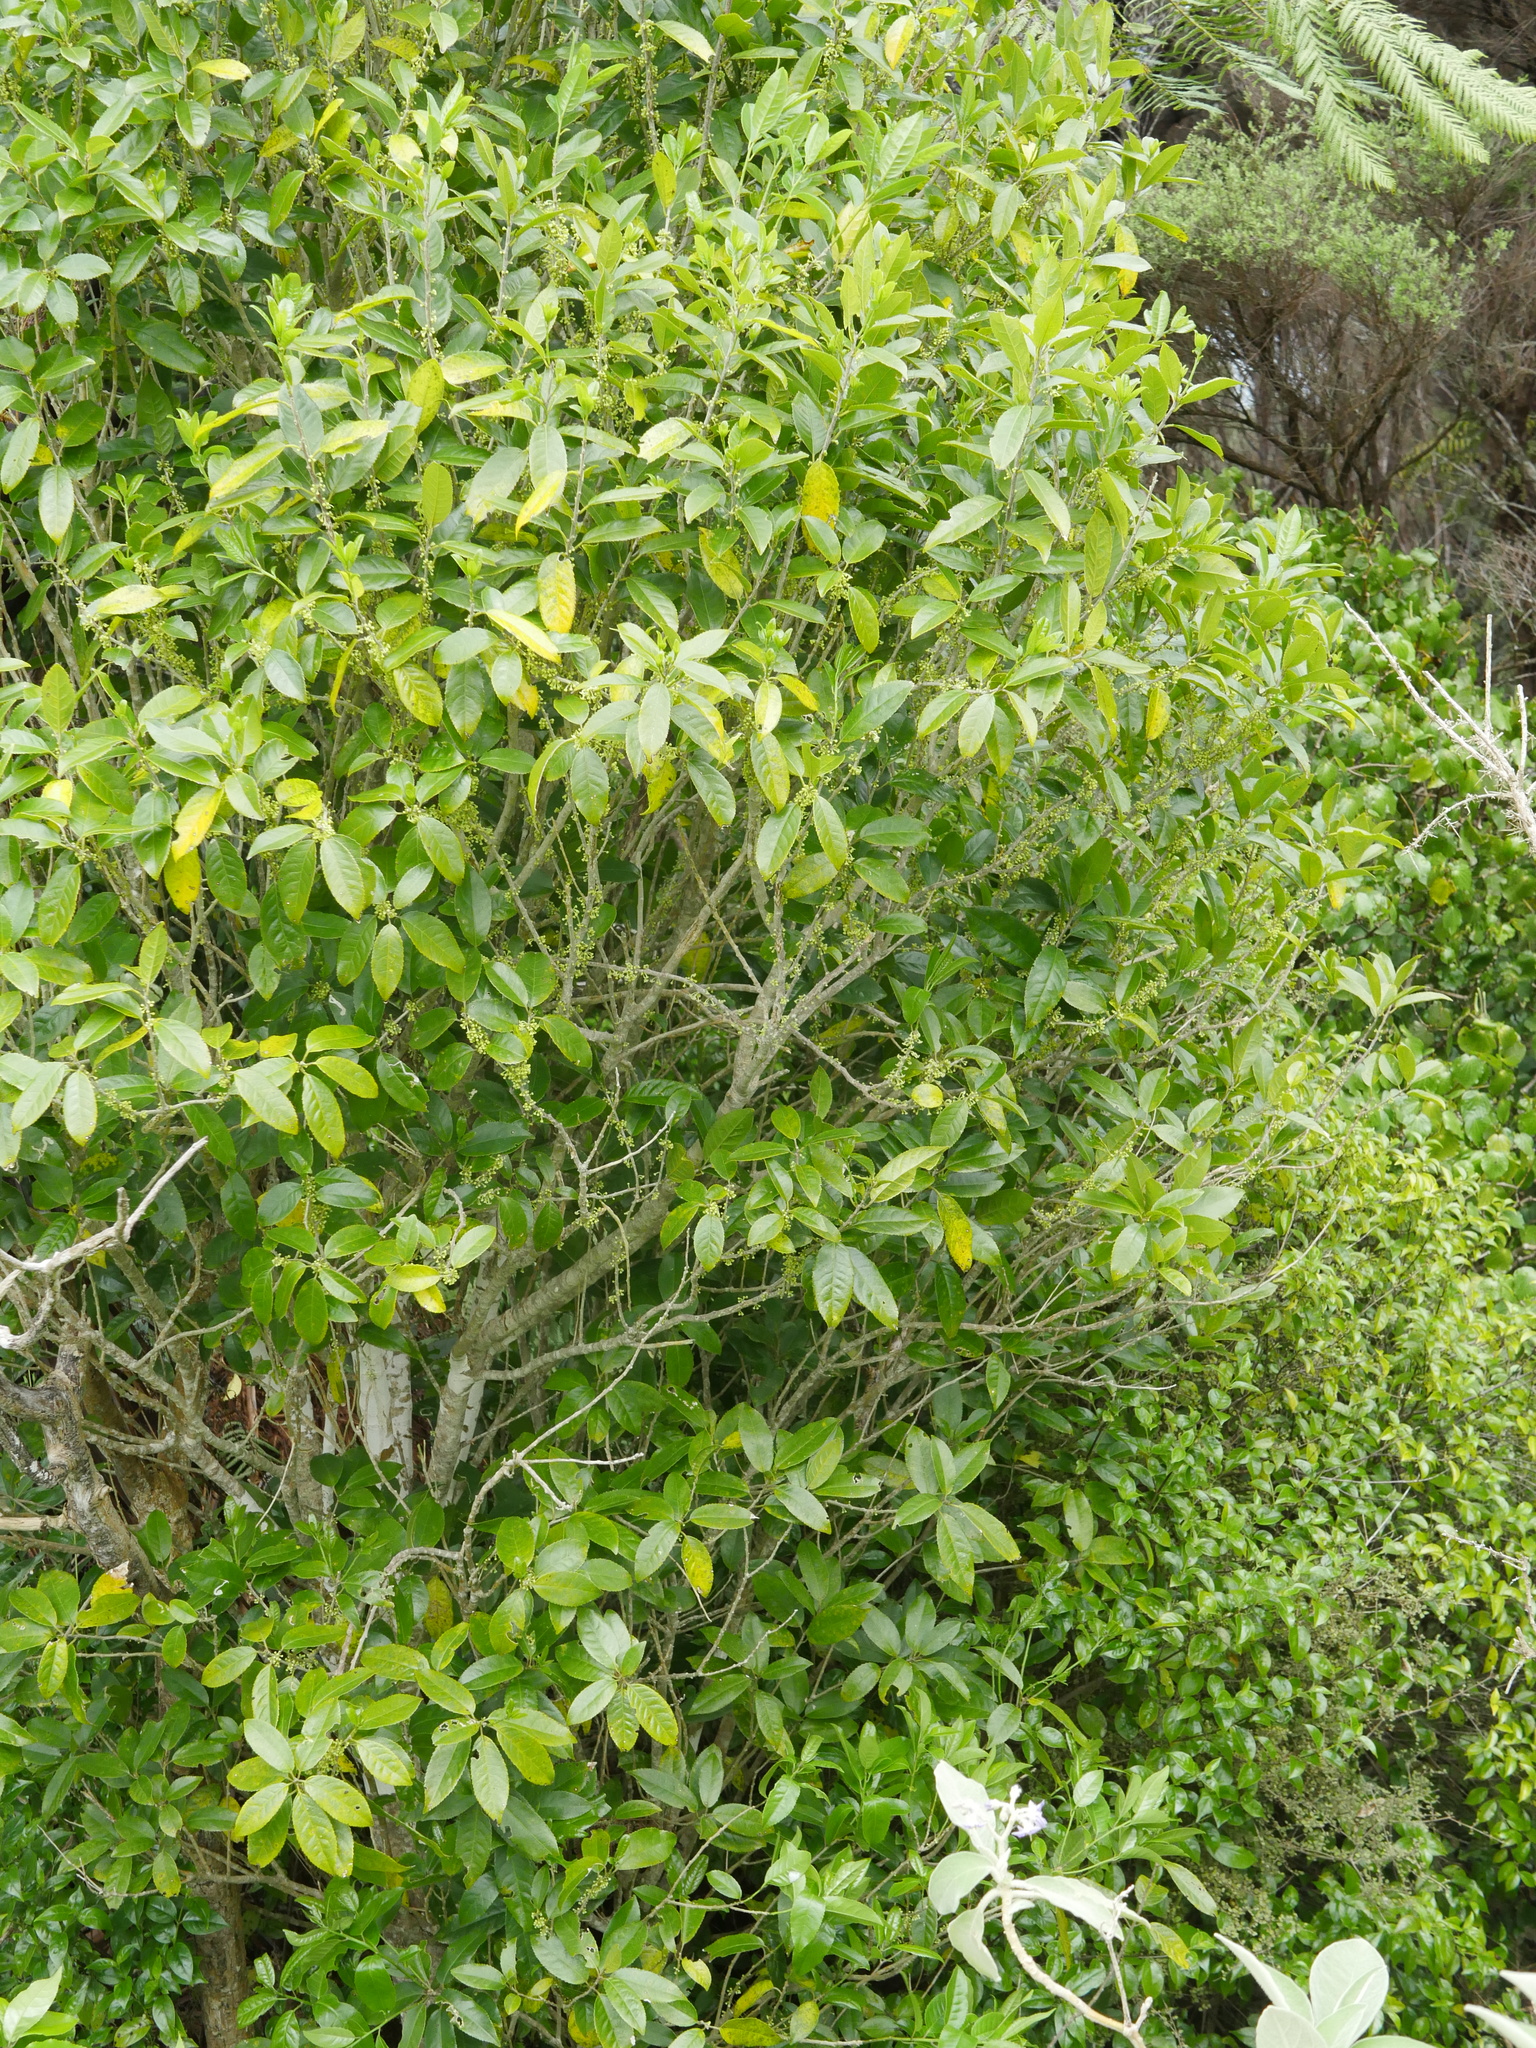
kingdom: Plantae
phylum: Tracheophyta
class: Magnoliopsida
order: Malpighiales
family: Violaceae
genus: Melicytus
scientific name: Melicytus ramiflorus
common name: Mahoe
